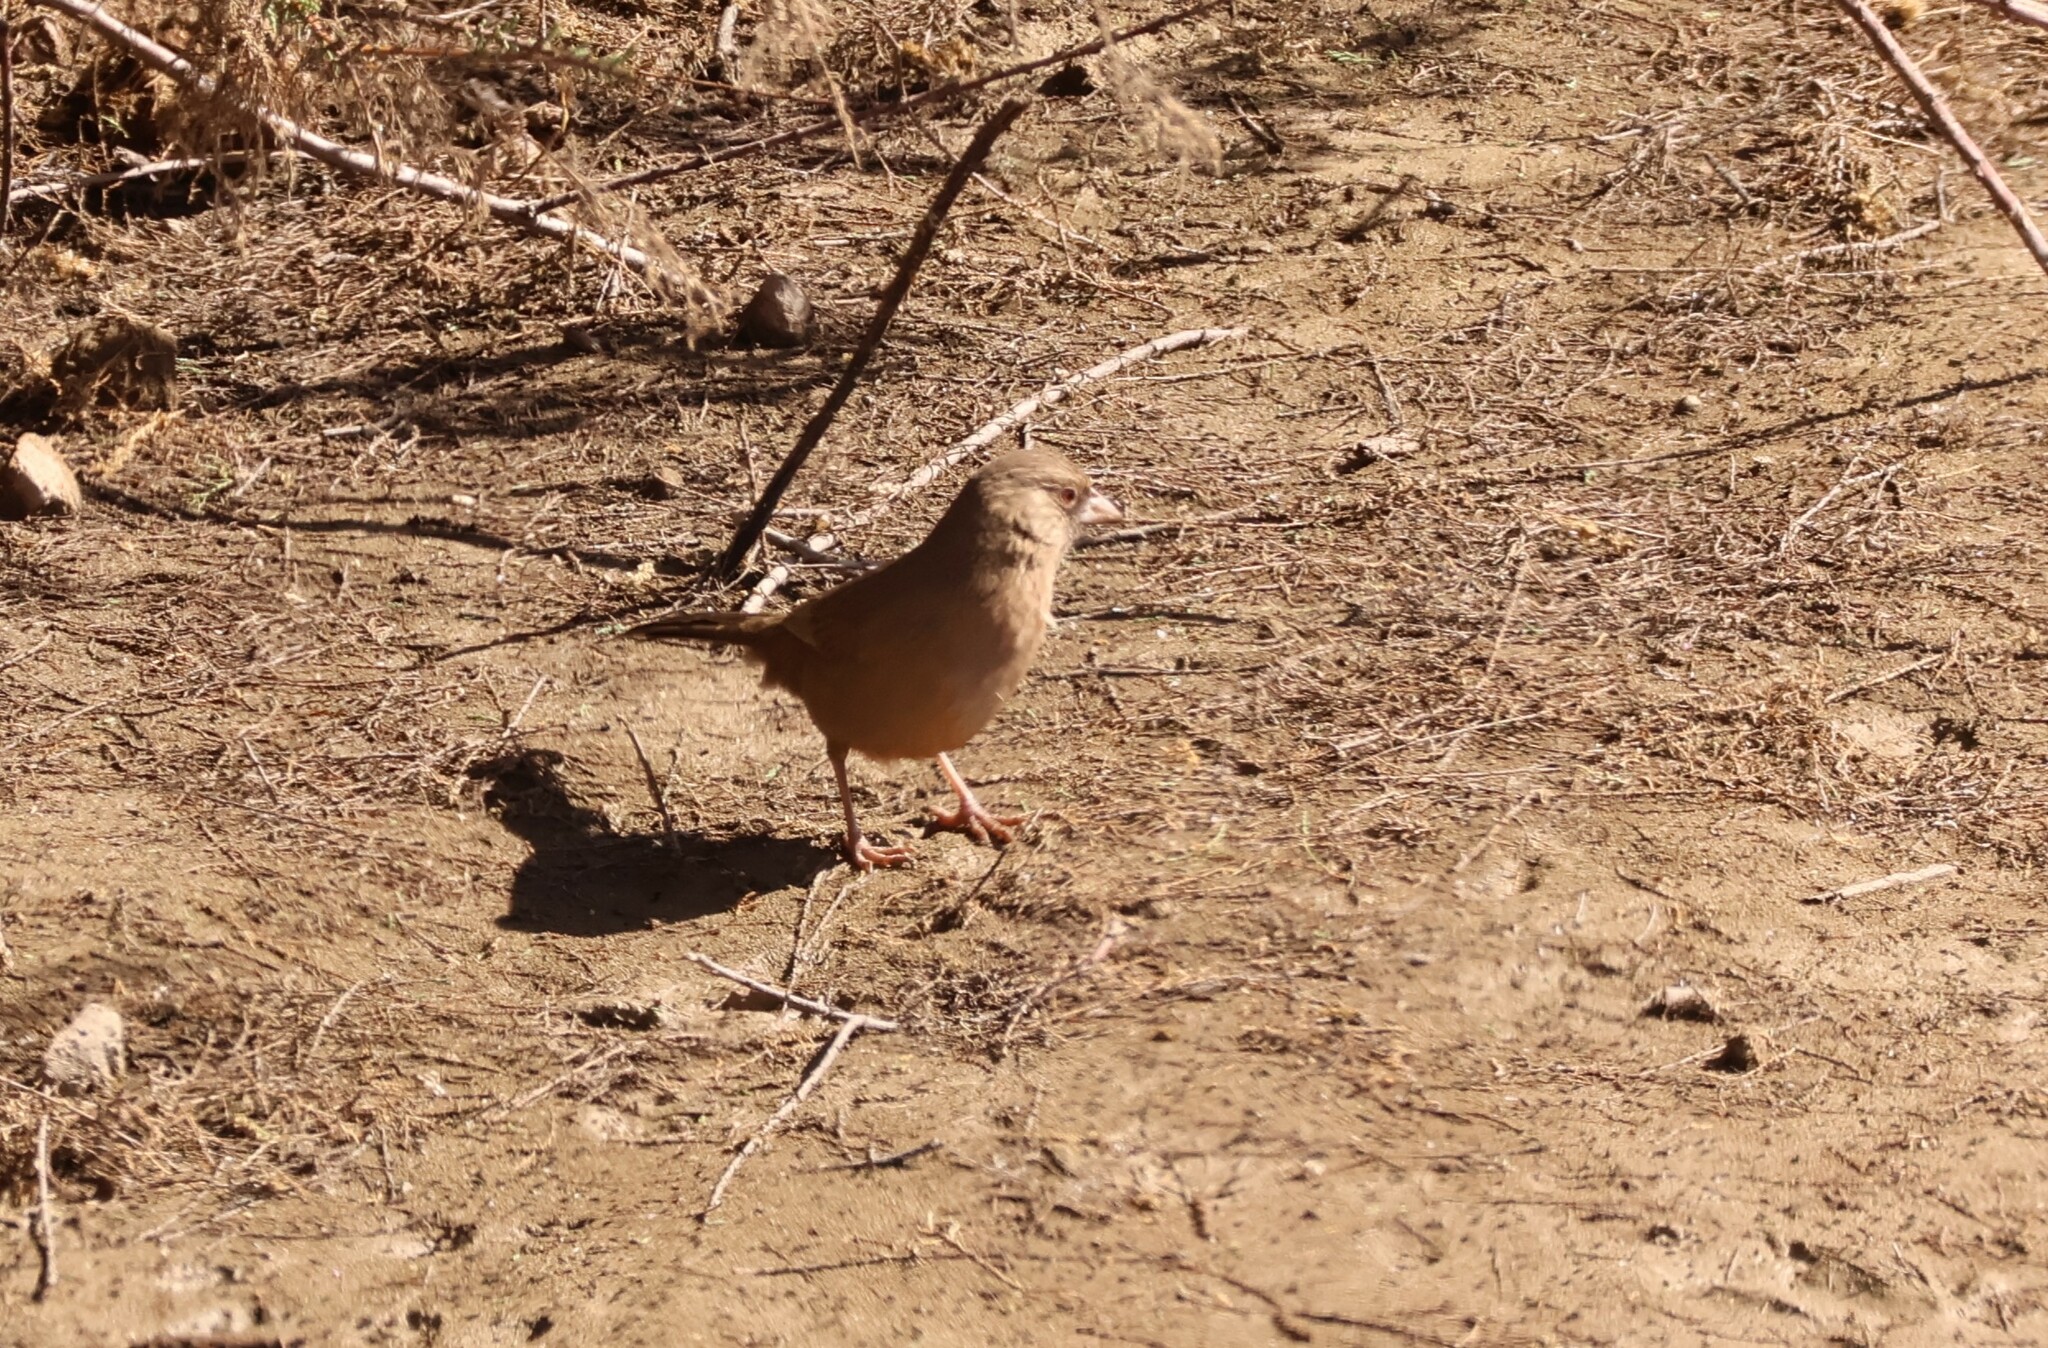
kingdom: Animalia
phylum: Chordata
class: Aves
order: Passeriformes
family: Passerellidae
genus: Melozone
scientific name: Melozone aberti
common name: Abert's towhee
